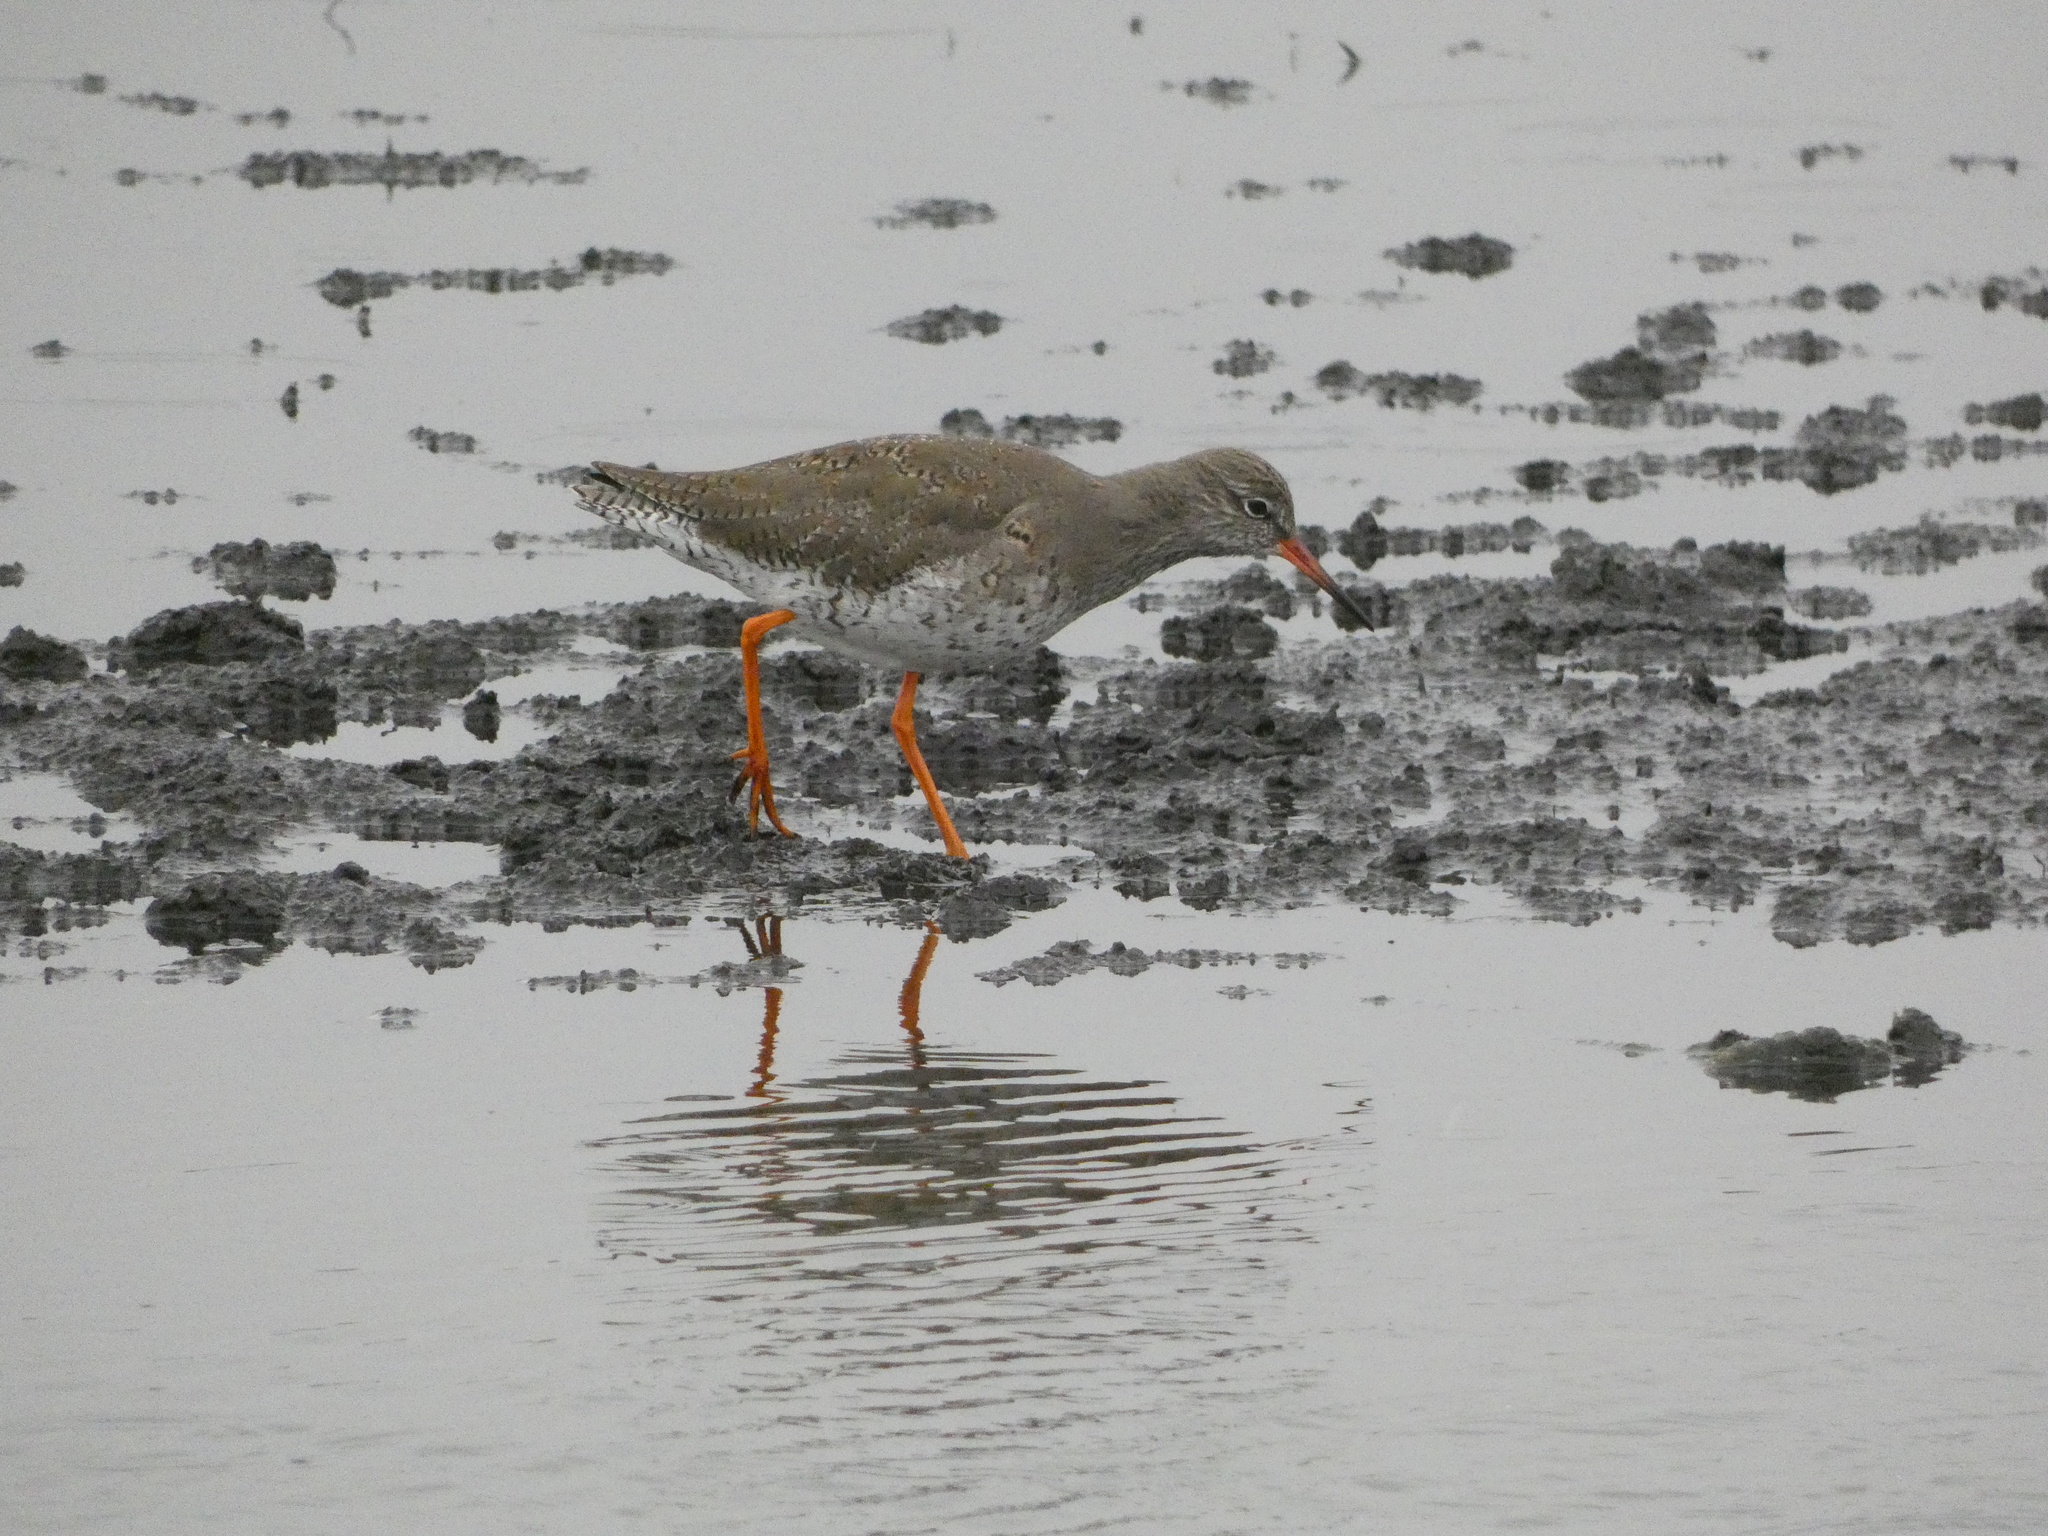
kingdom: Animalia
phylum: Chordata
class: Aves
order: Charadriiformes
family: Scolopacidae
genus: Tringa
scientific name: Tringa totanus
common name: Common redshank
